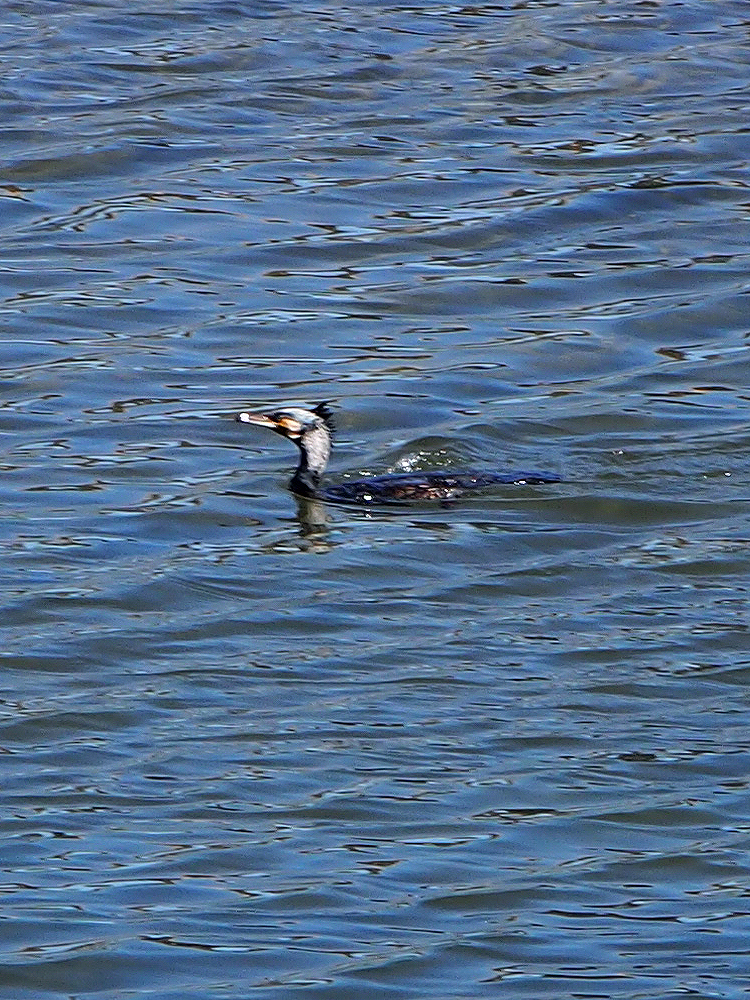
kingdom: Animalia
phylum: Chordata
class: Aves
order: Suliformes
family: Phalacrocoracidae
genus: Phalacrocorax
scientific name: Phalacrocorax carbo
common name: Great cormorant
